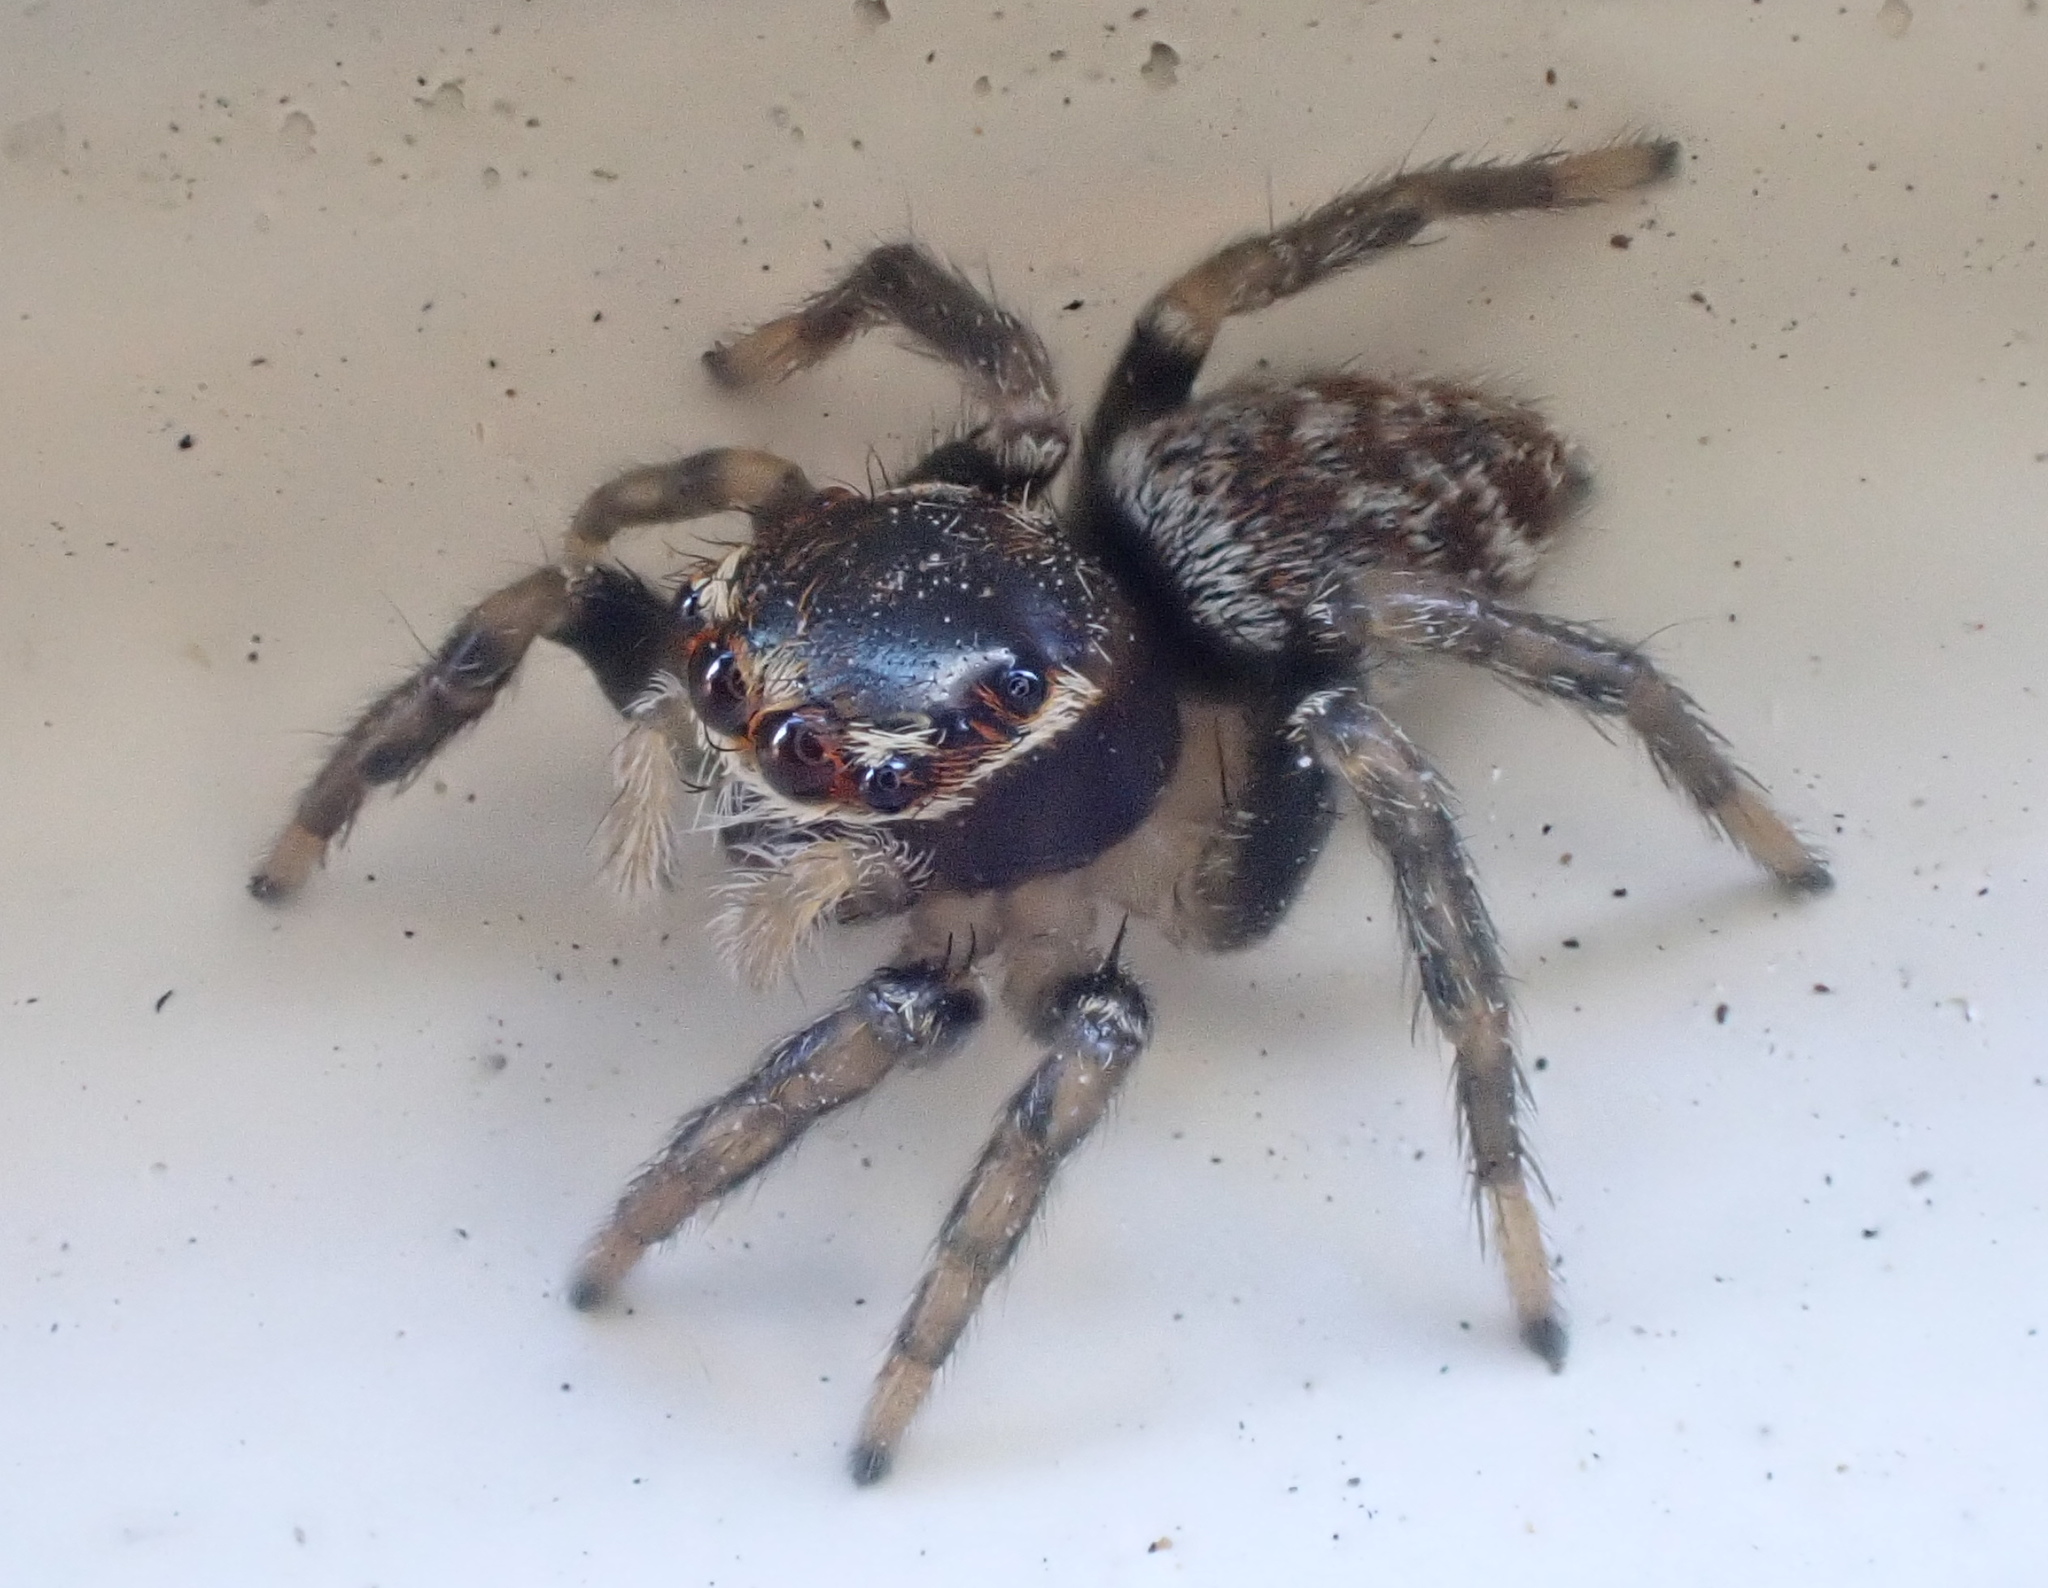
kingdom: Animalia
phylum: Arthropoda
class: Arachnida
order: Araneae
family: Salticidae
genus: Maratus
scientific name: Maratus griseus
